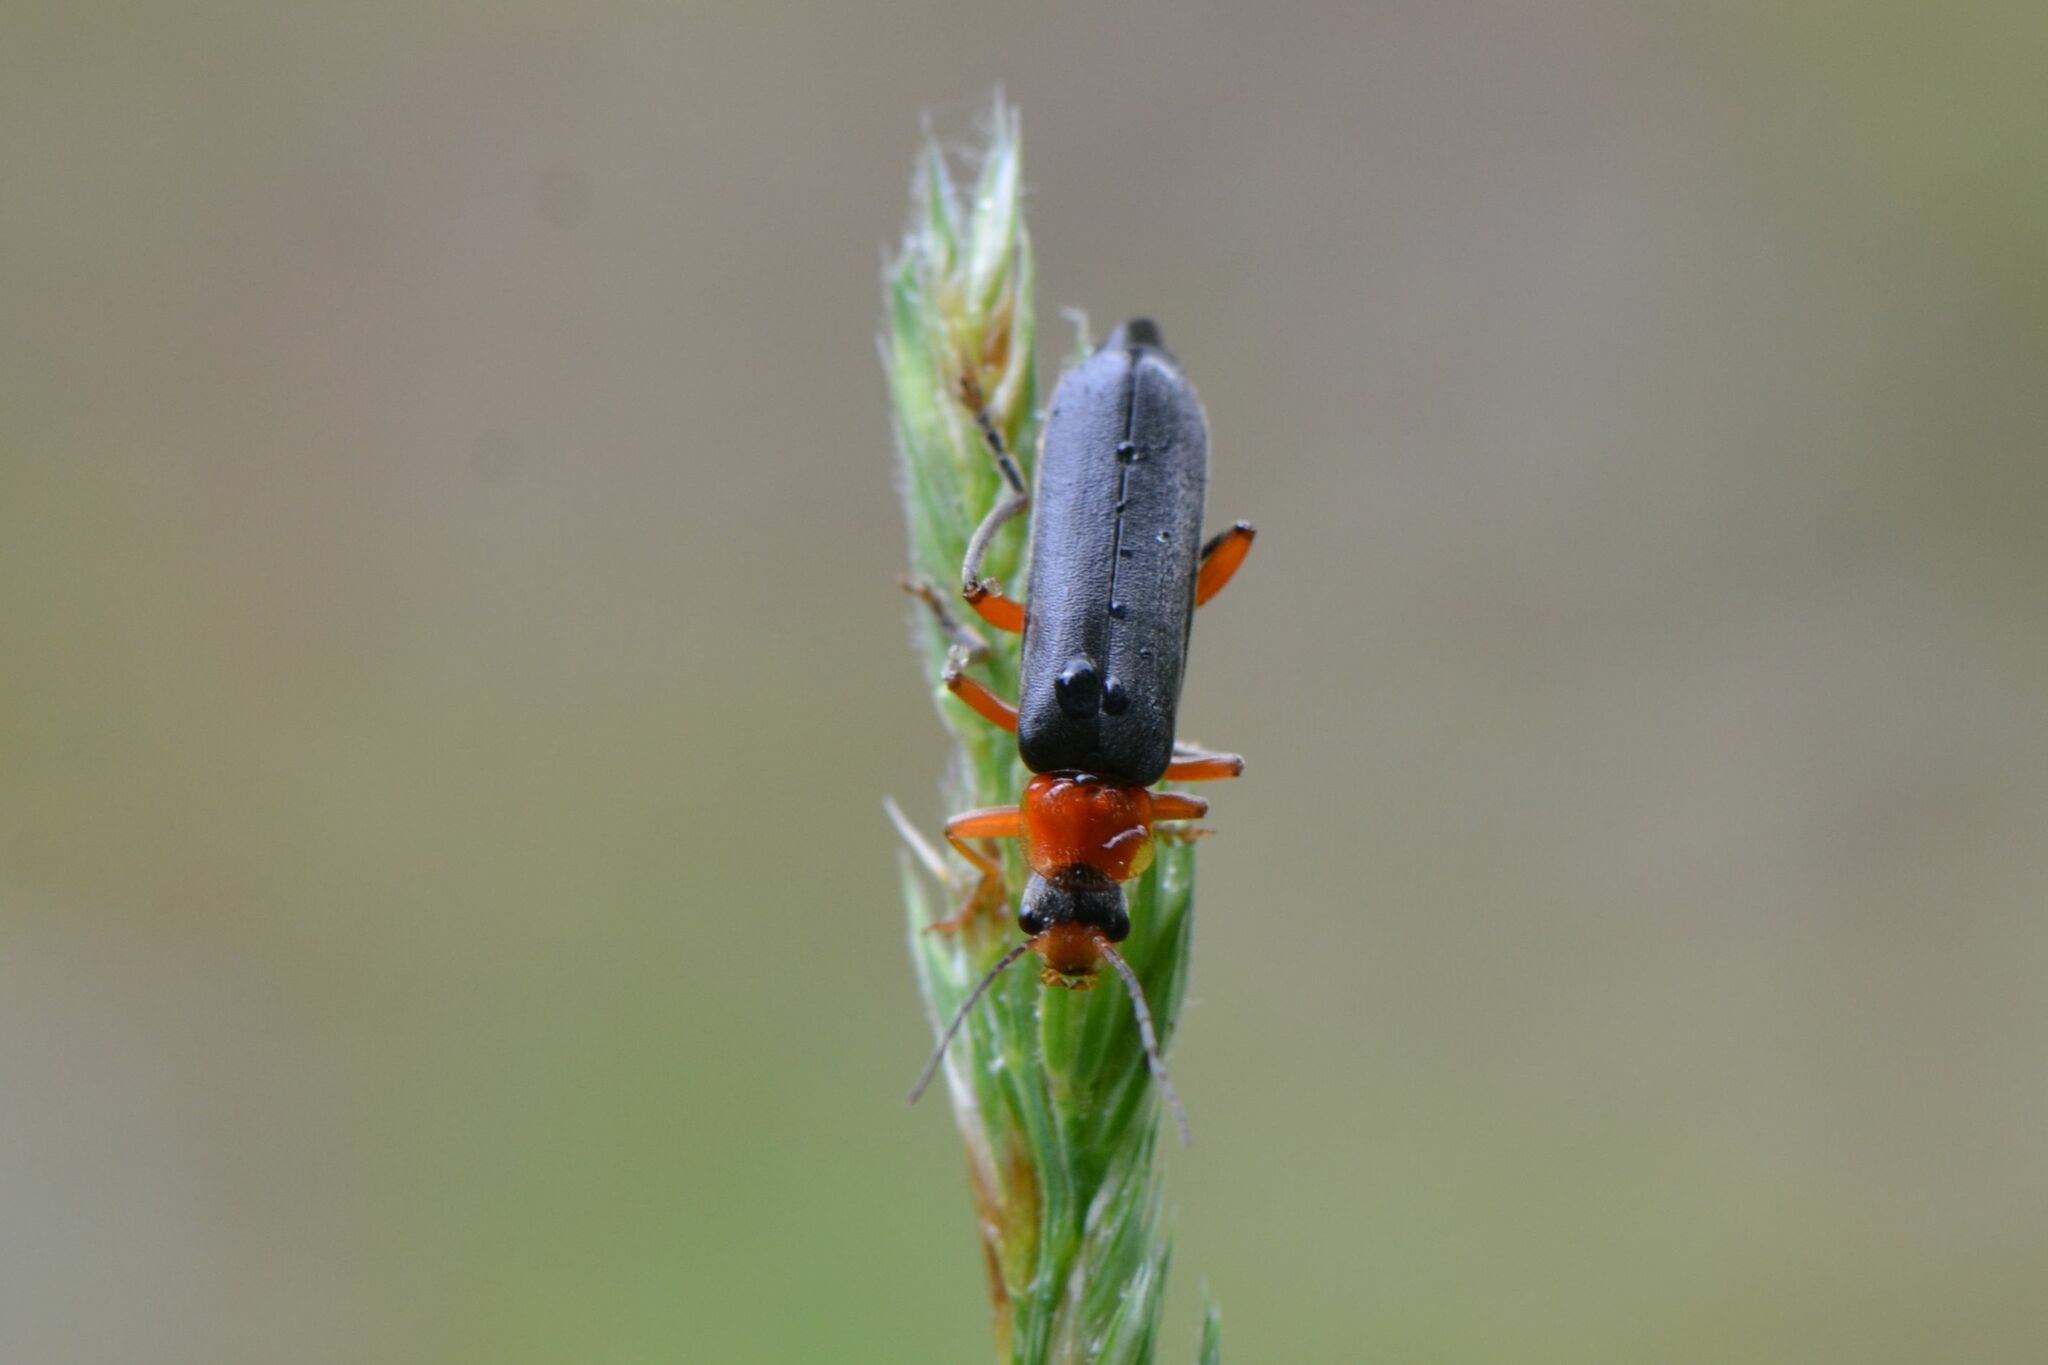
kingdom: Animalia
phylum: Arthropoda
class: Insecta
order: Coleoptera
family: Cantharidae
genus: Cantharis
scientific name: Cantharis pellucida
